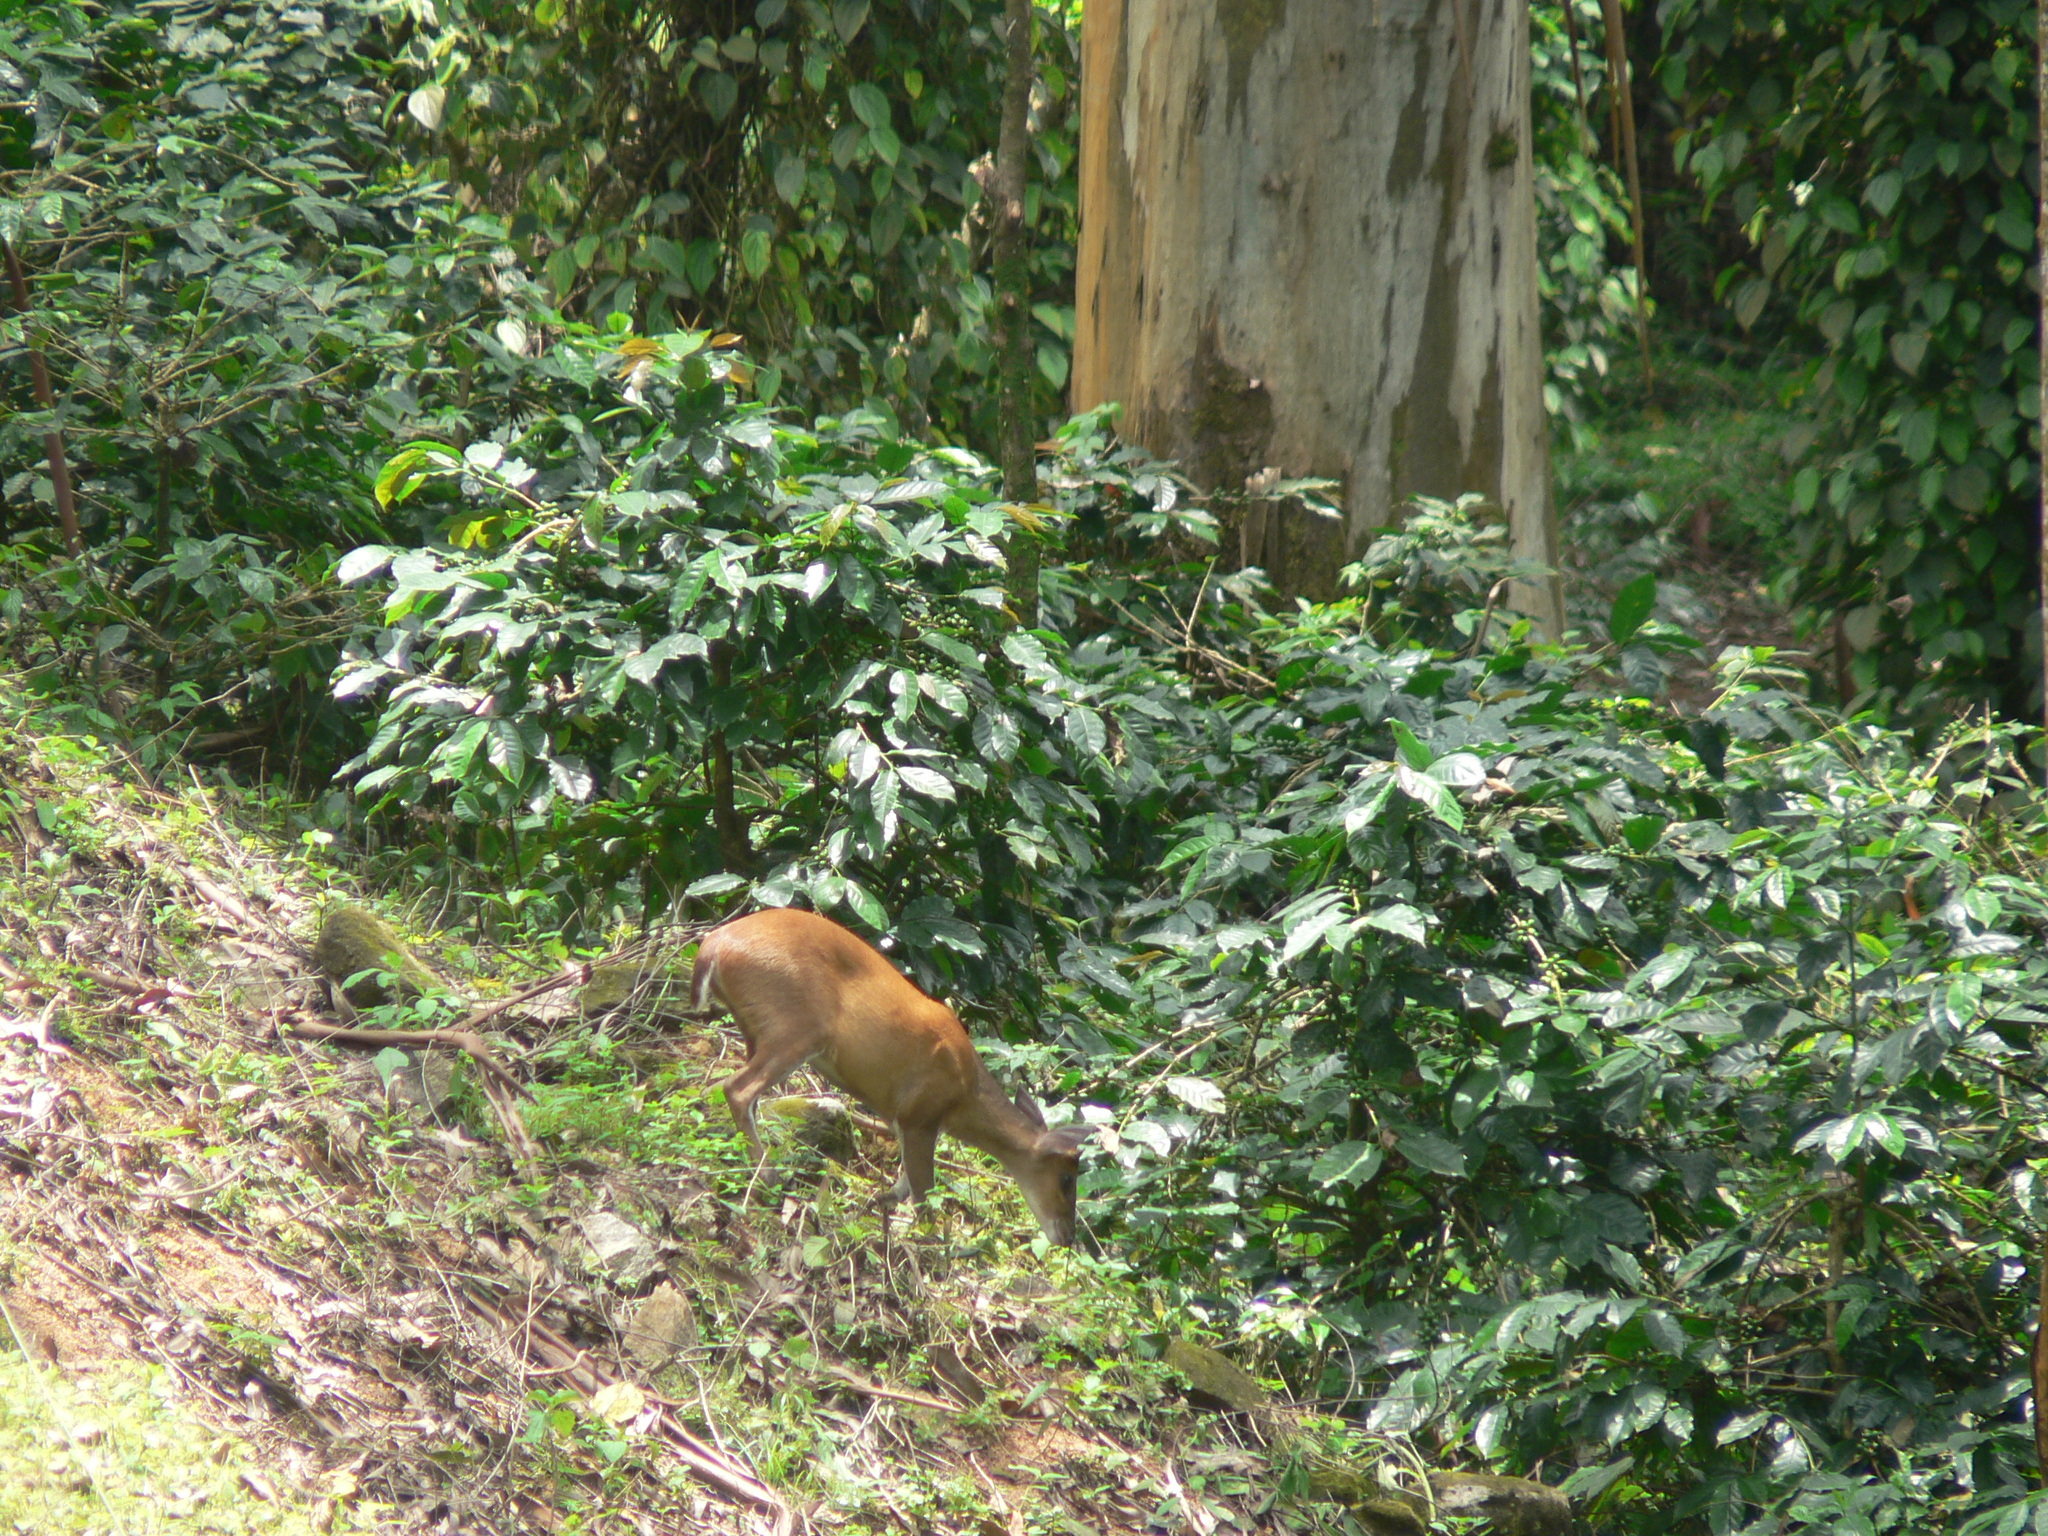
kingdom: Animalia
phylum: Chordata
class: Mammalia
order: Artiodactyla
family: Cervidae
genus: Muntiacus
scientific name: Muntiacus muntjak
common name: Indian muntjac
